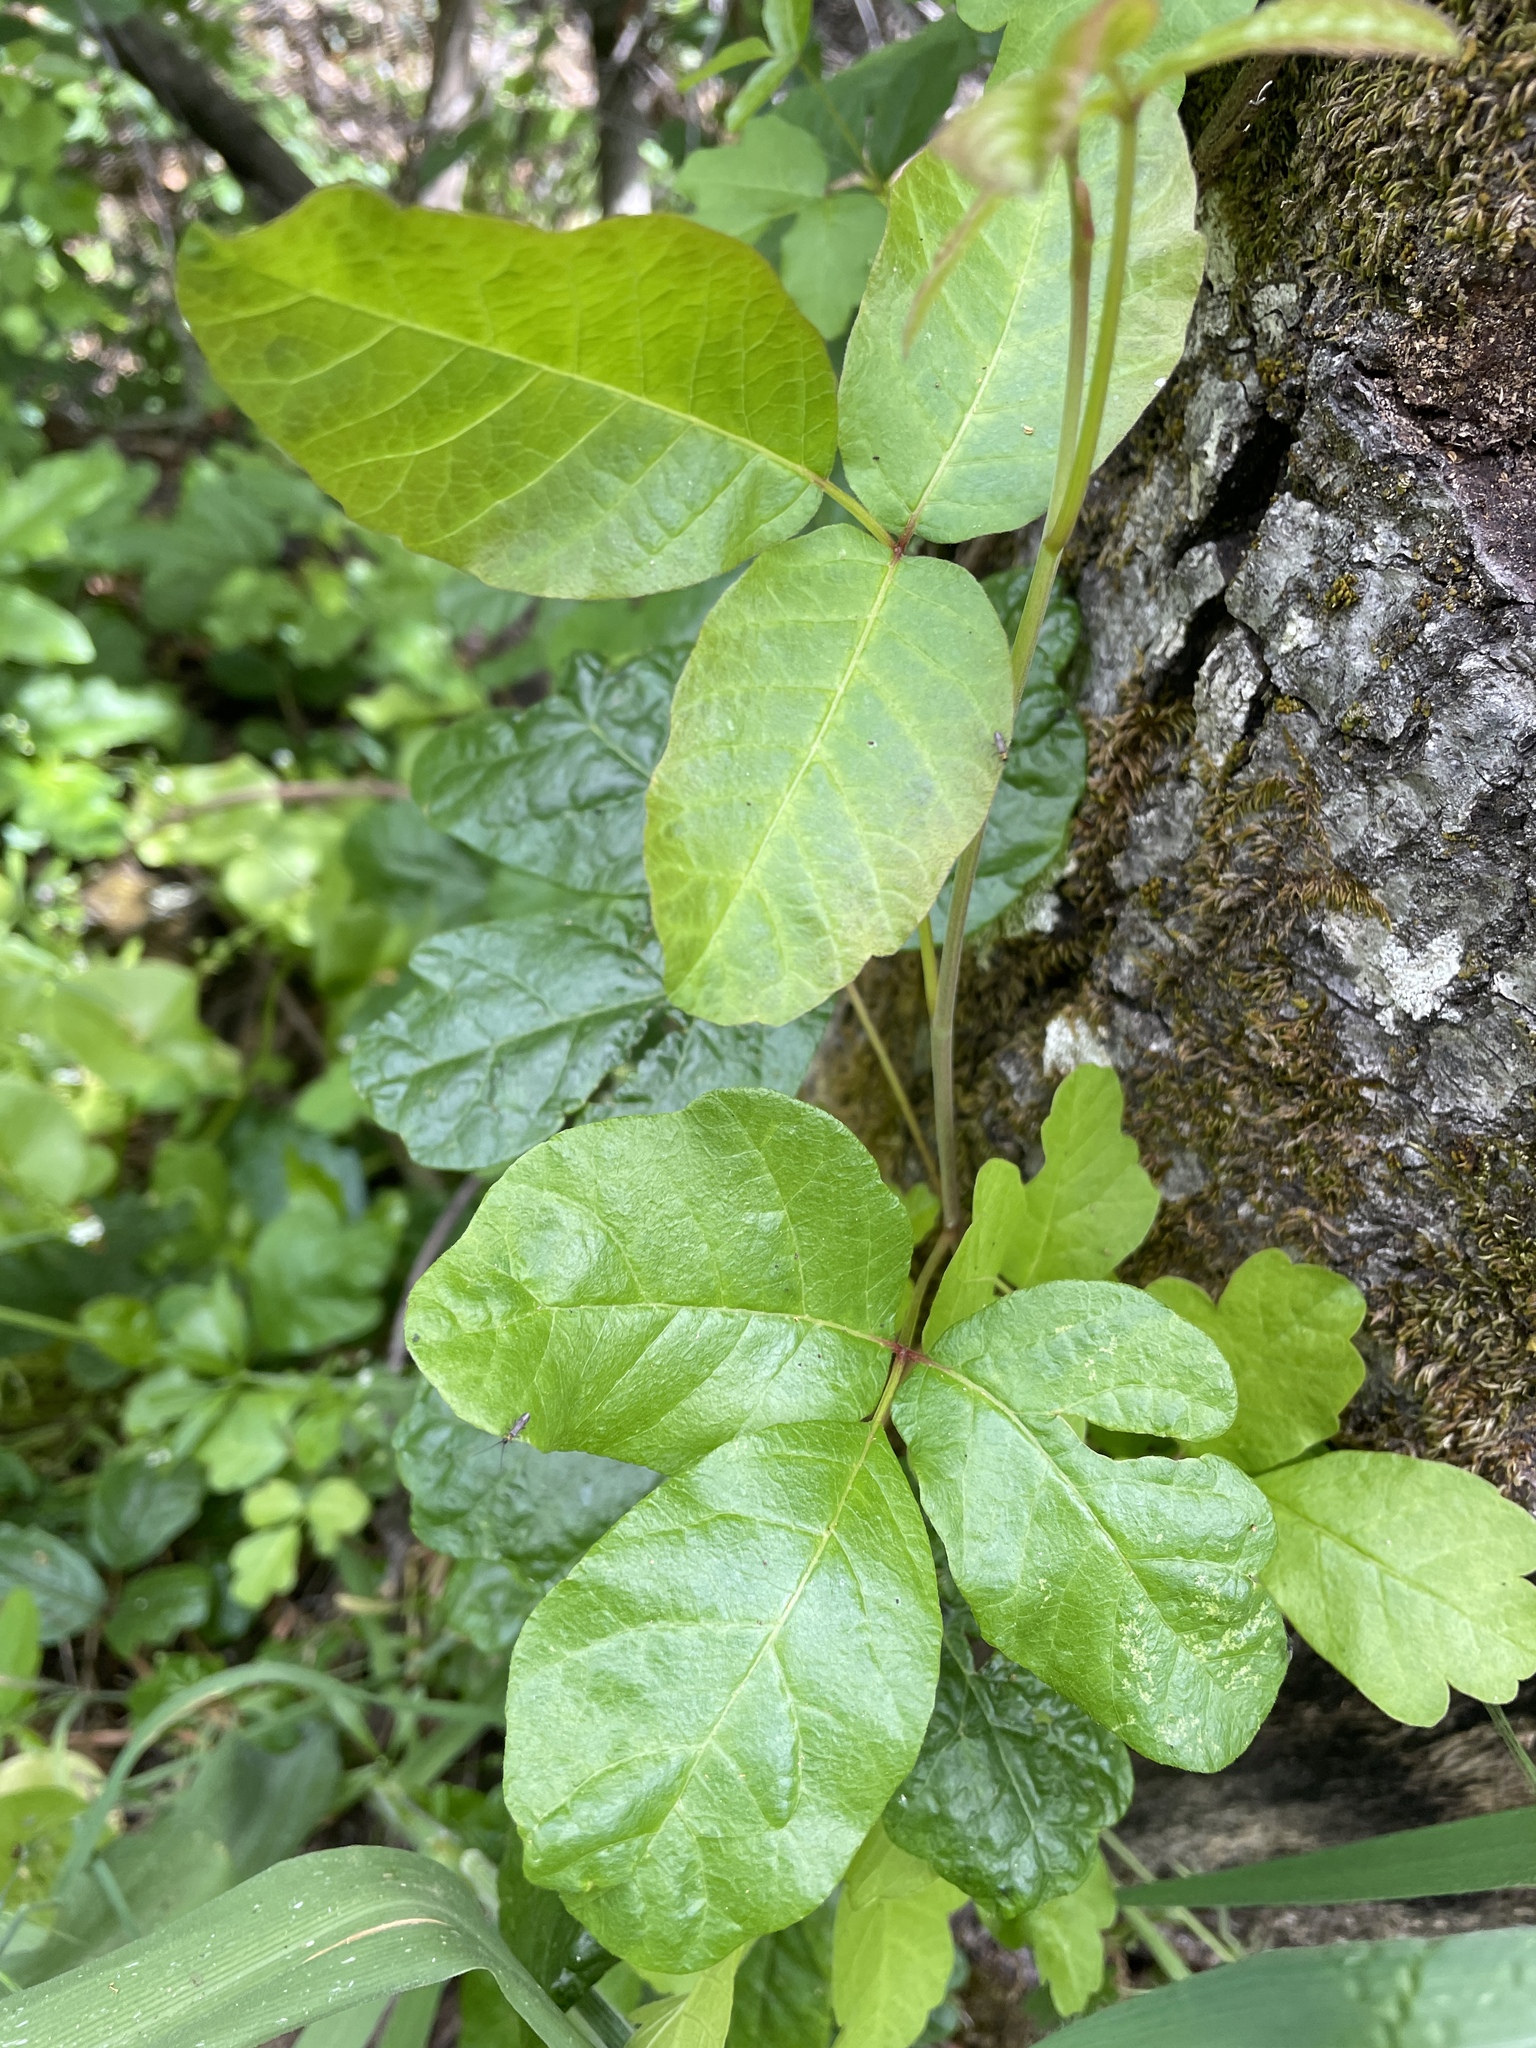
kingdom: Plantae
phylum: Tracheophyta
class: Magnoliopsida
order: Sapindales
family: Anacardiaceae
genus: Toxicodendron
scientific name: Toxicodendron diversilobum
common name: Pacific poison-oak
